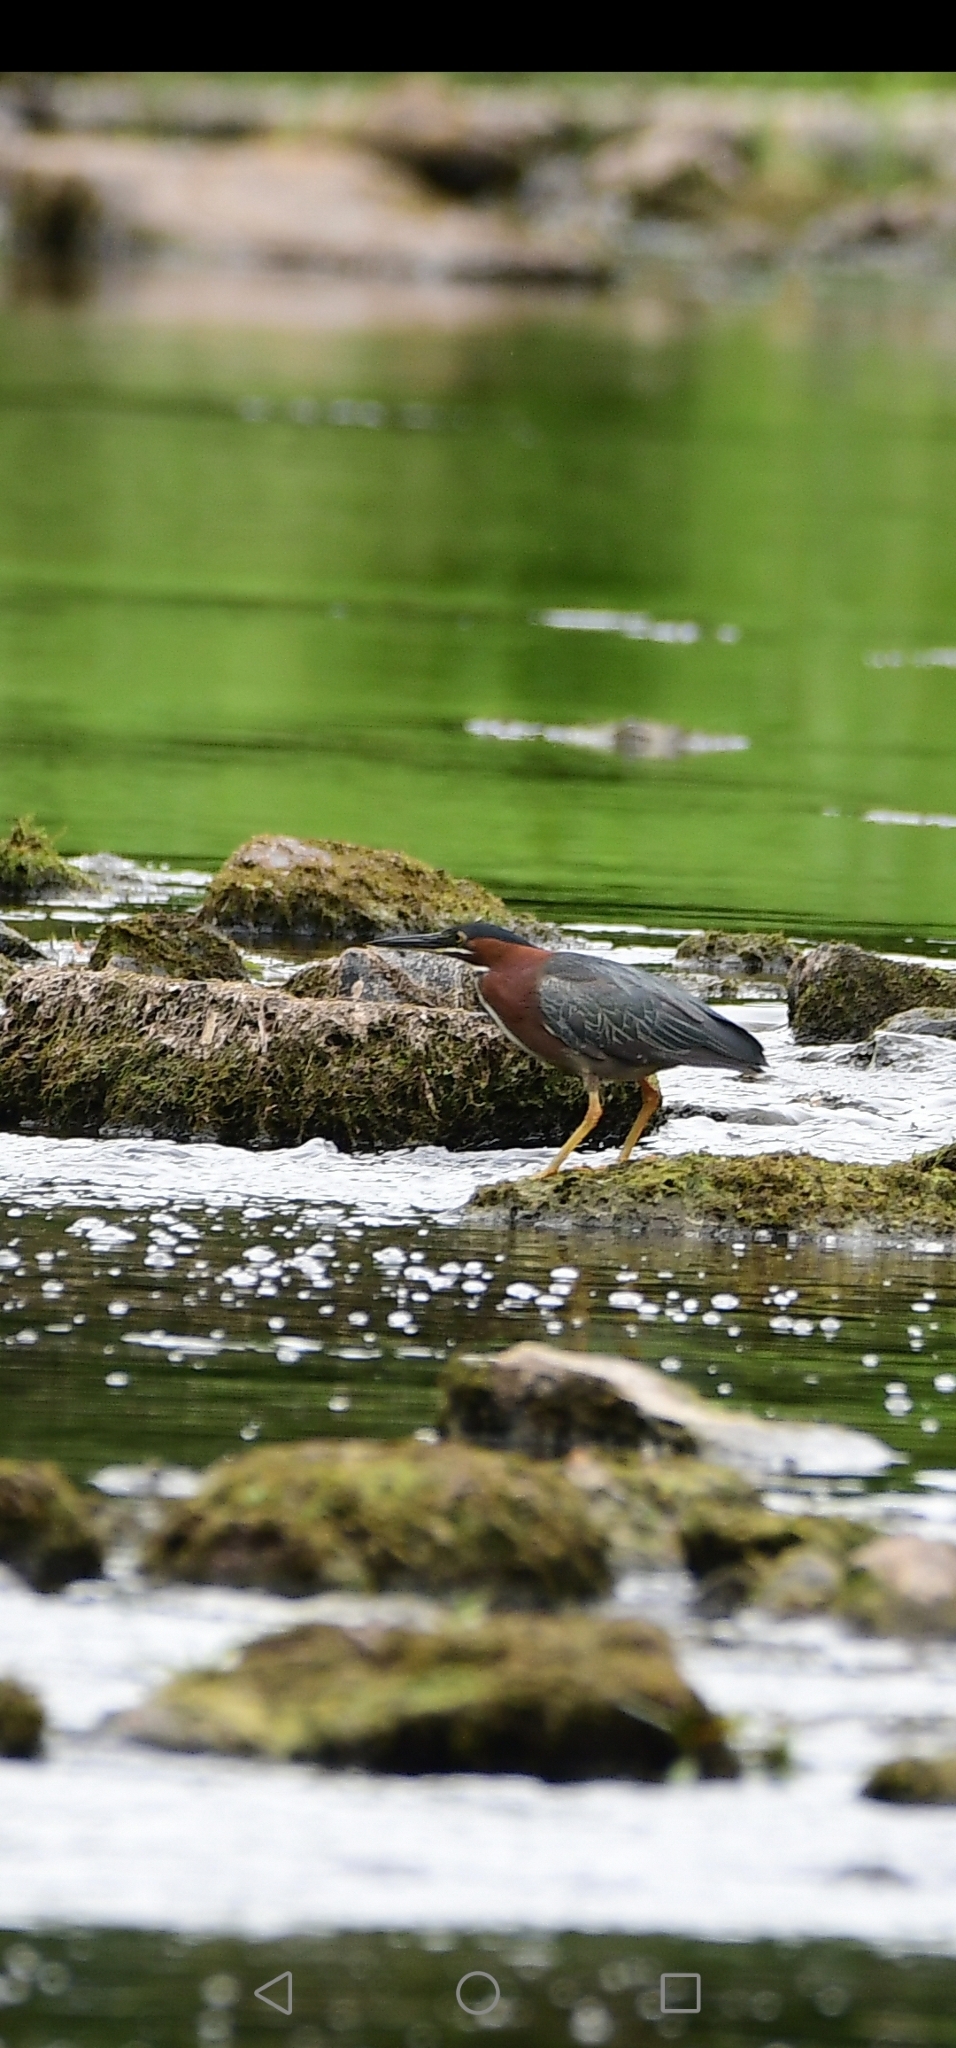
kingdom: Animalia
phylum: Chordata
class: Aves
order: Pelecaniformes
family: Ardeidae
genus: Butorides
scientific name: Butorides virescens
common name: Green heron
